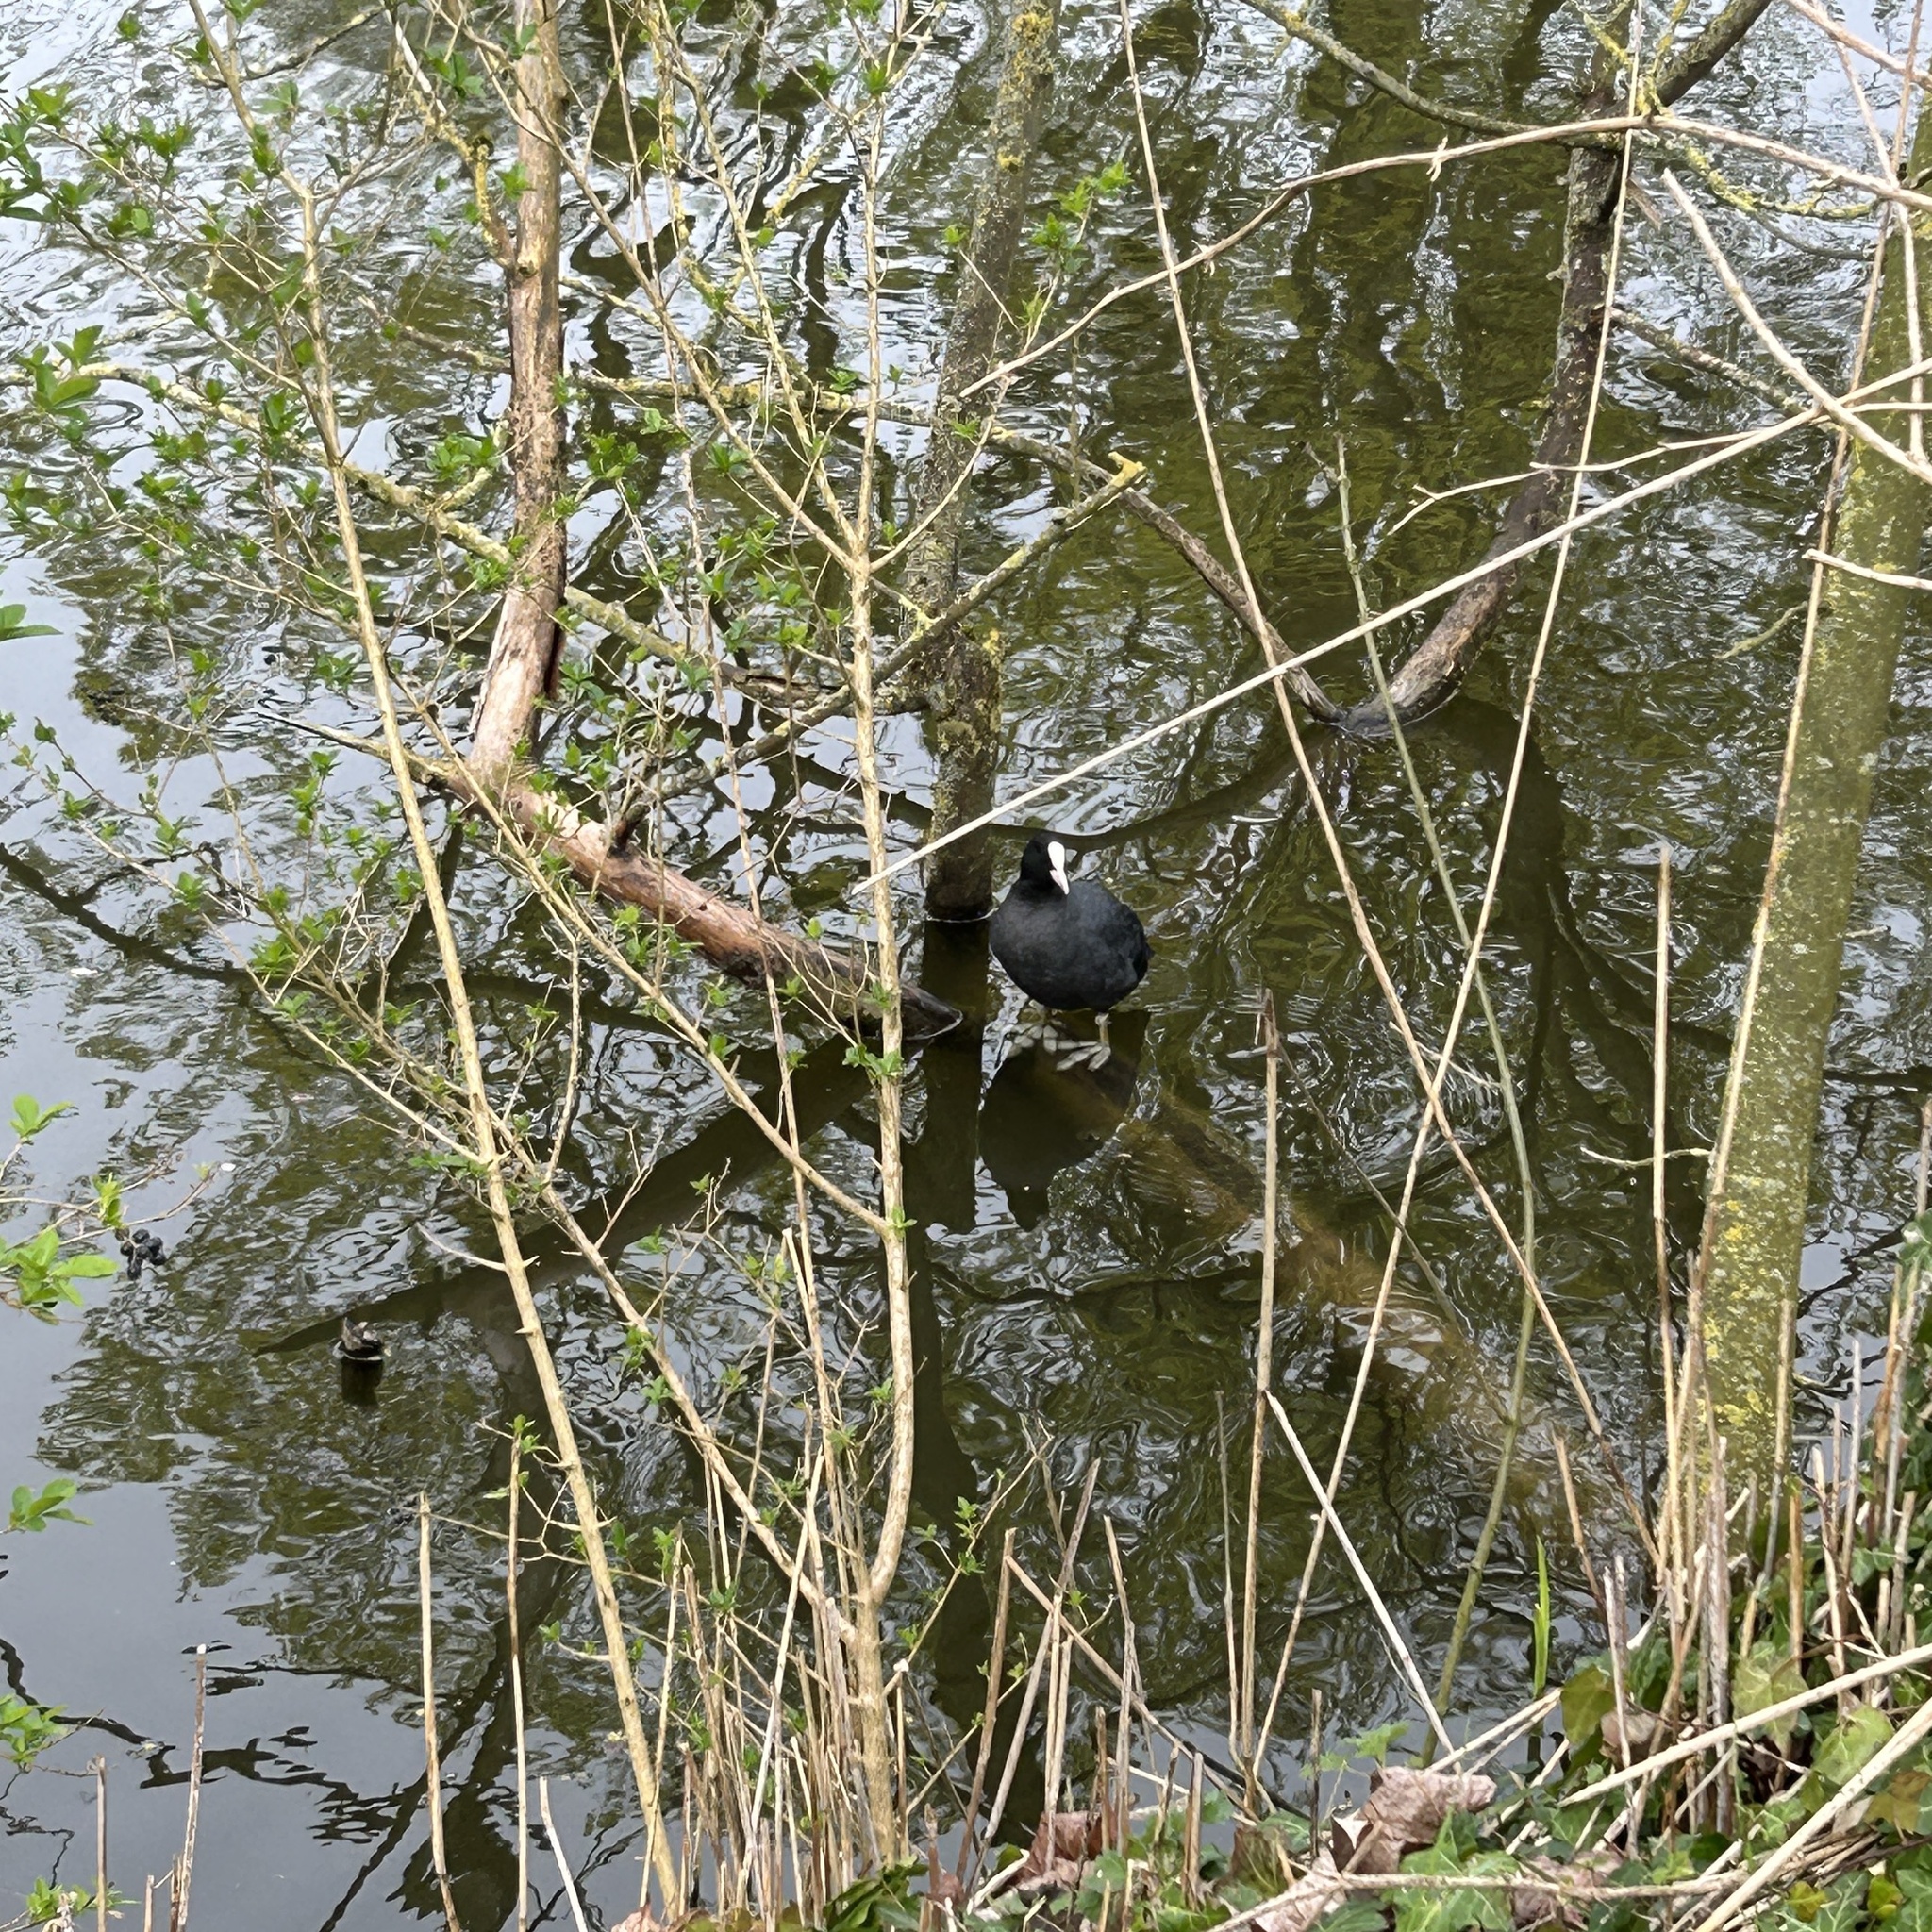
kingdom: Animalia
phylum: Chordata
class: Aves
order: Gruiformes
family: Rallidae
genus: Fulica
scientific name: Fulica atra
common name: Eurasian coot
